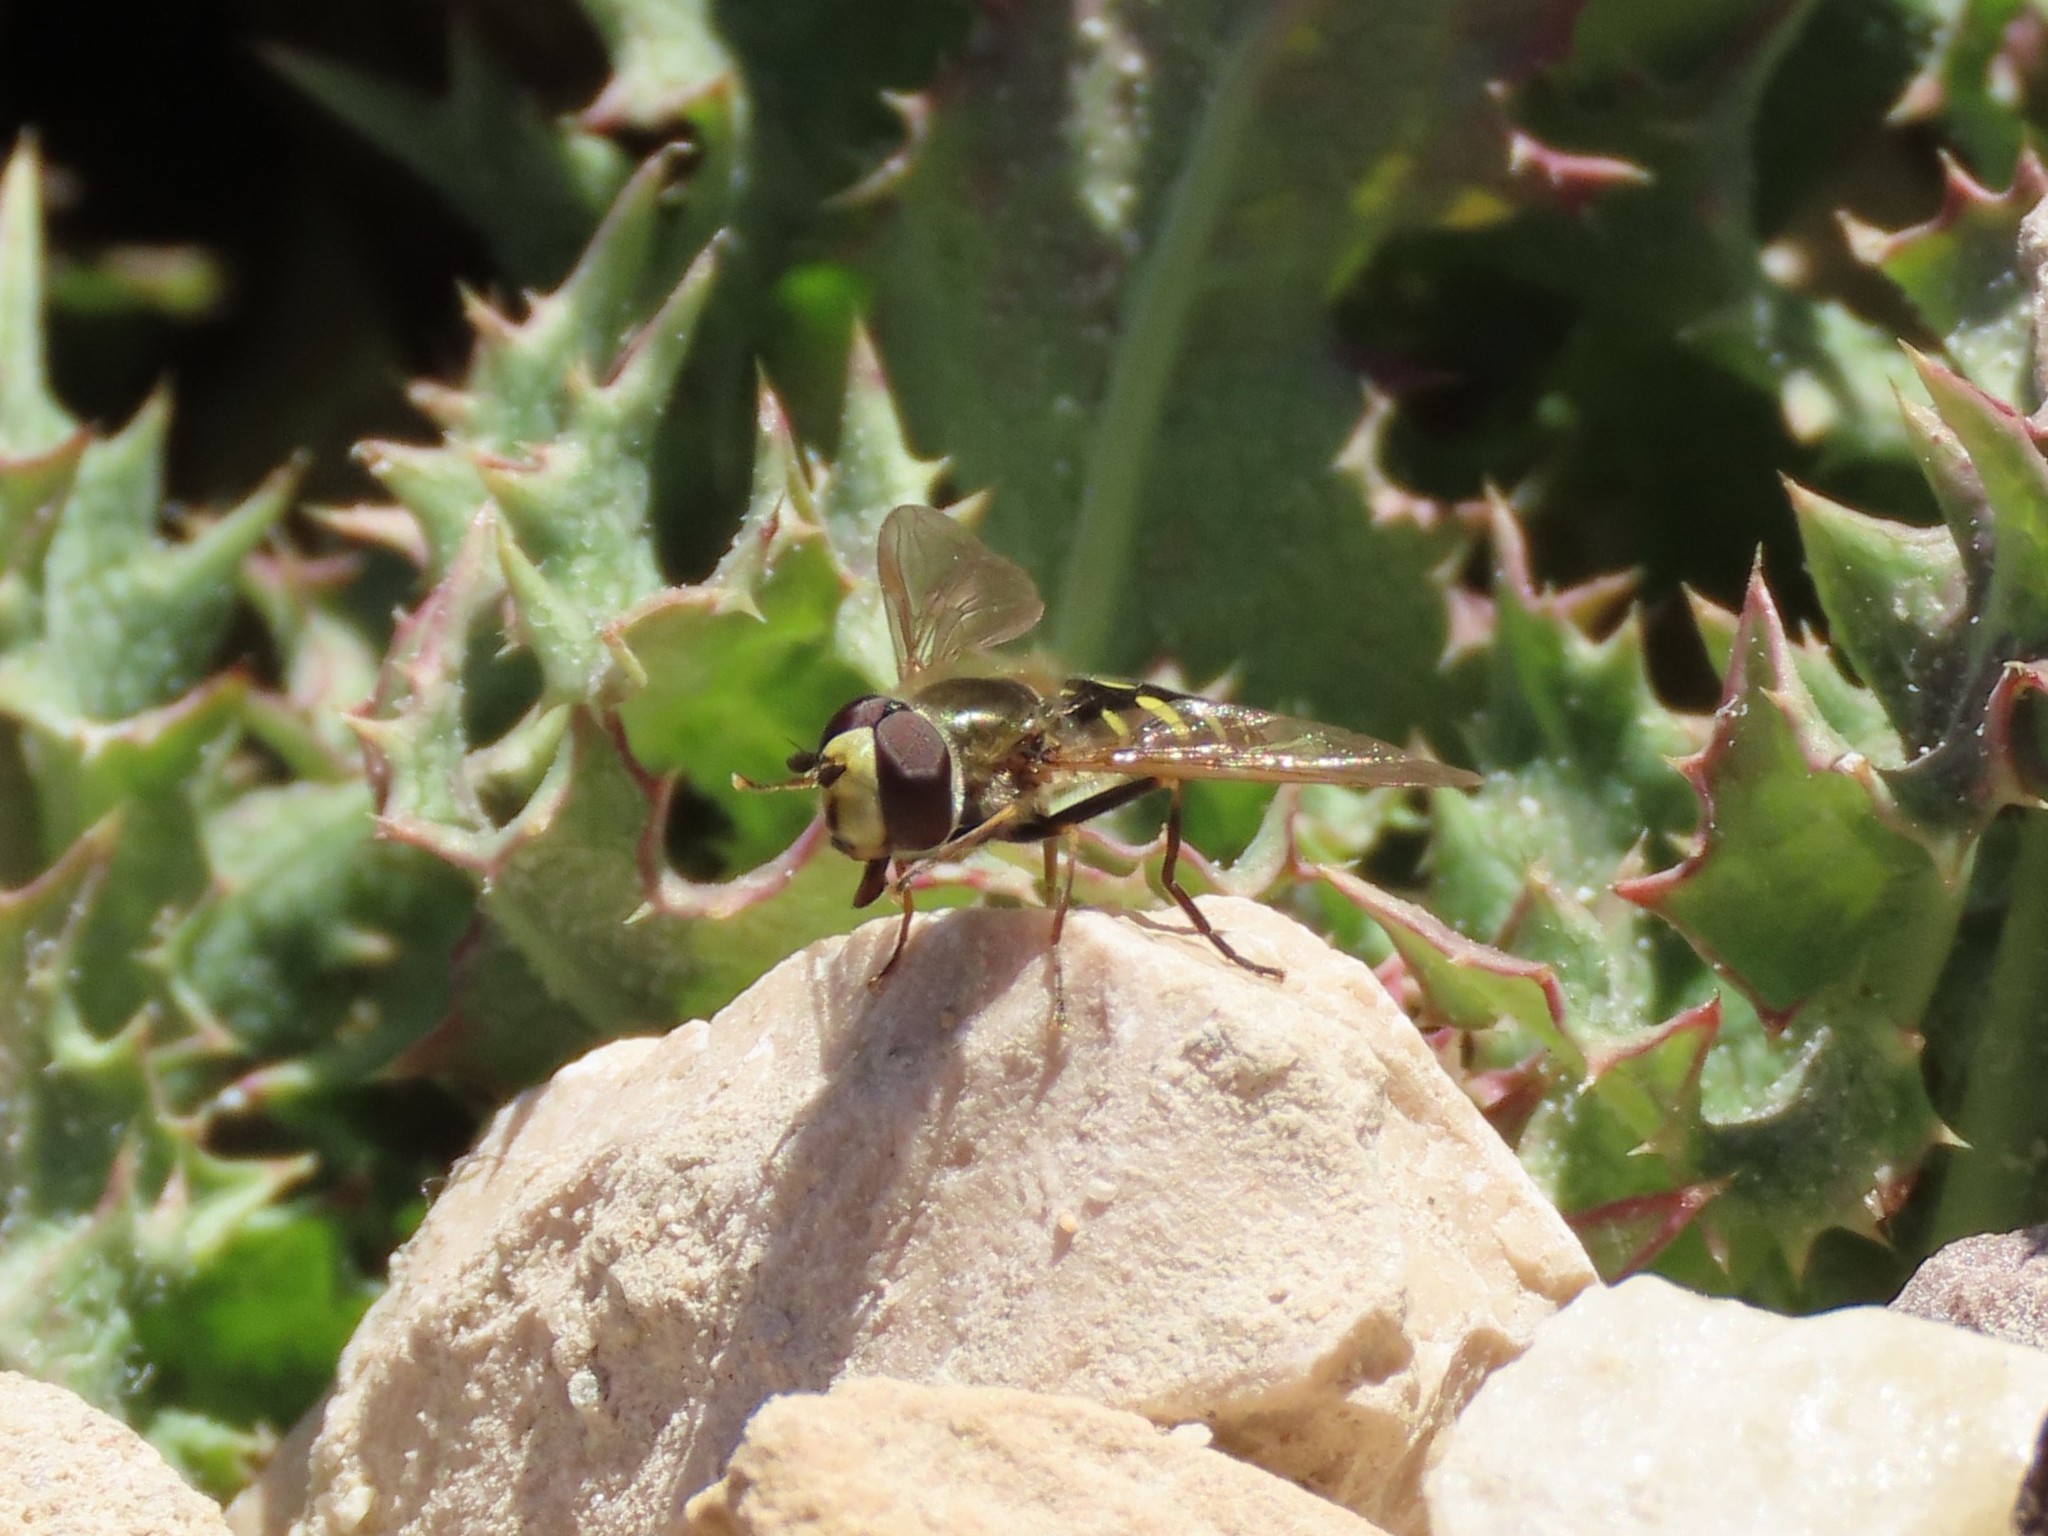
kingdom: Animalia
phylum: Arthropoda
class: Insecta
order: Diptera
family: Syrphidae
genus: Eupeodes
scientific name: Eupeodes
